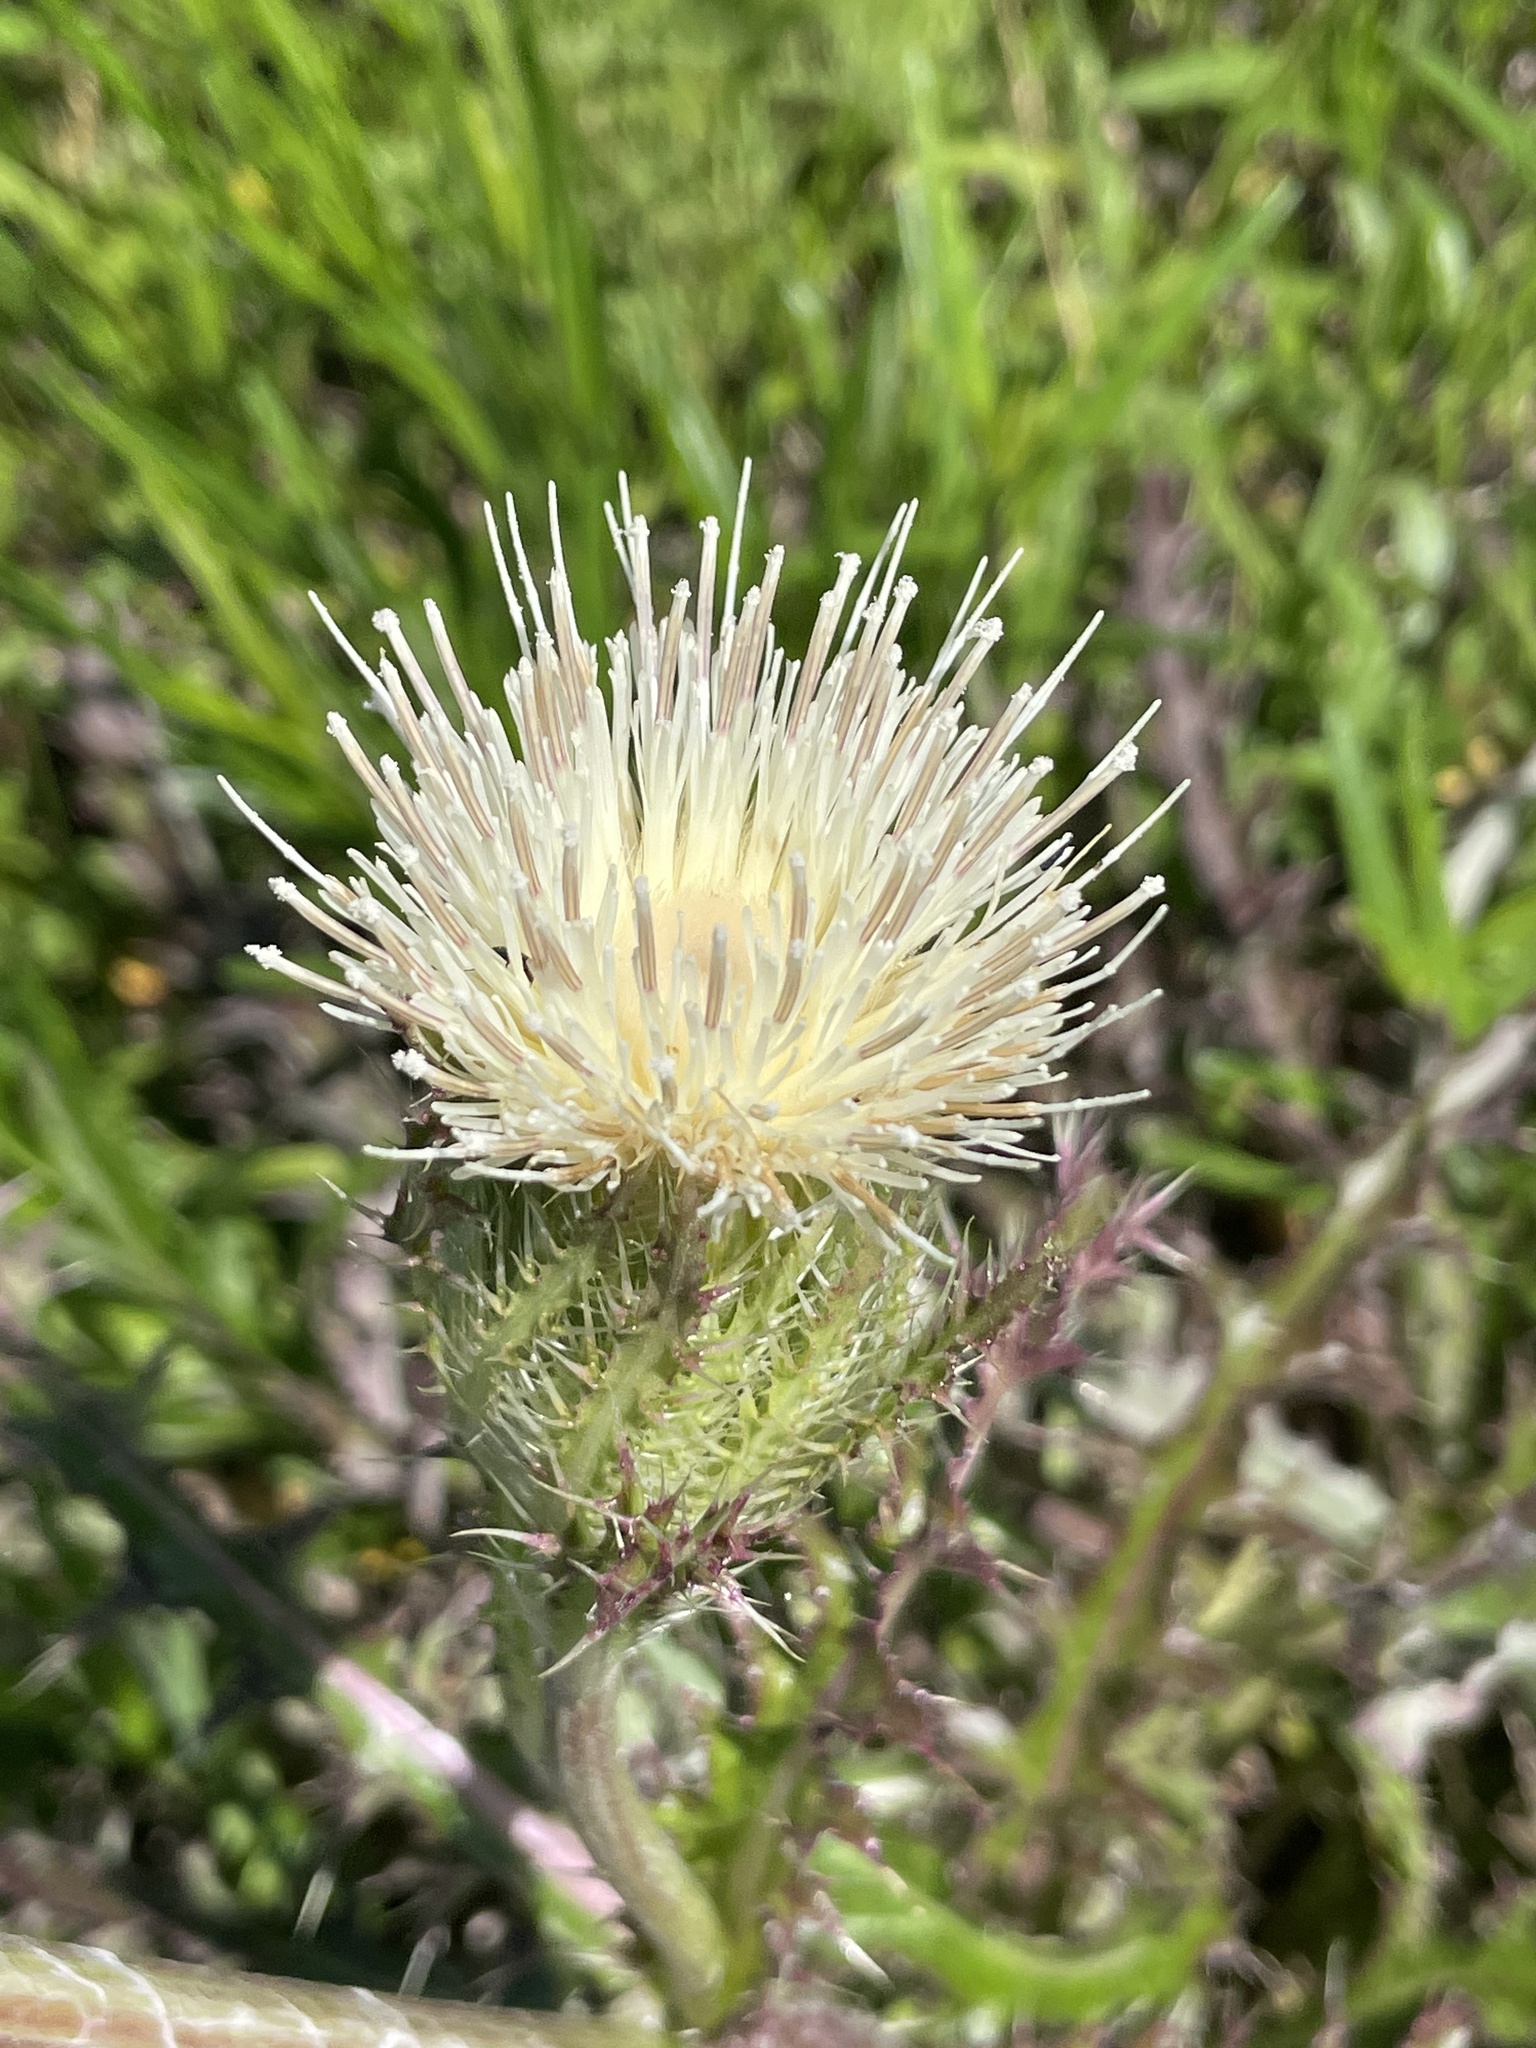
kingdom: Plantae
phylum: Tracheophyta
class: Magnoliopsida
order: Asterales
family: Asteraceae
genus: Cirsium
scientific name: Cirsium horridulum
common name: Bristly thistle
